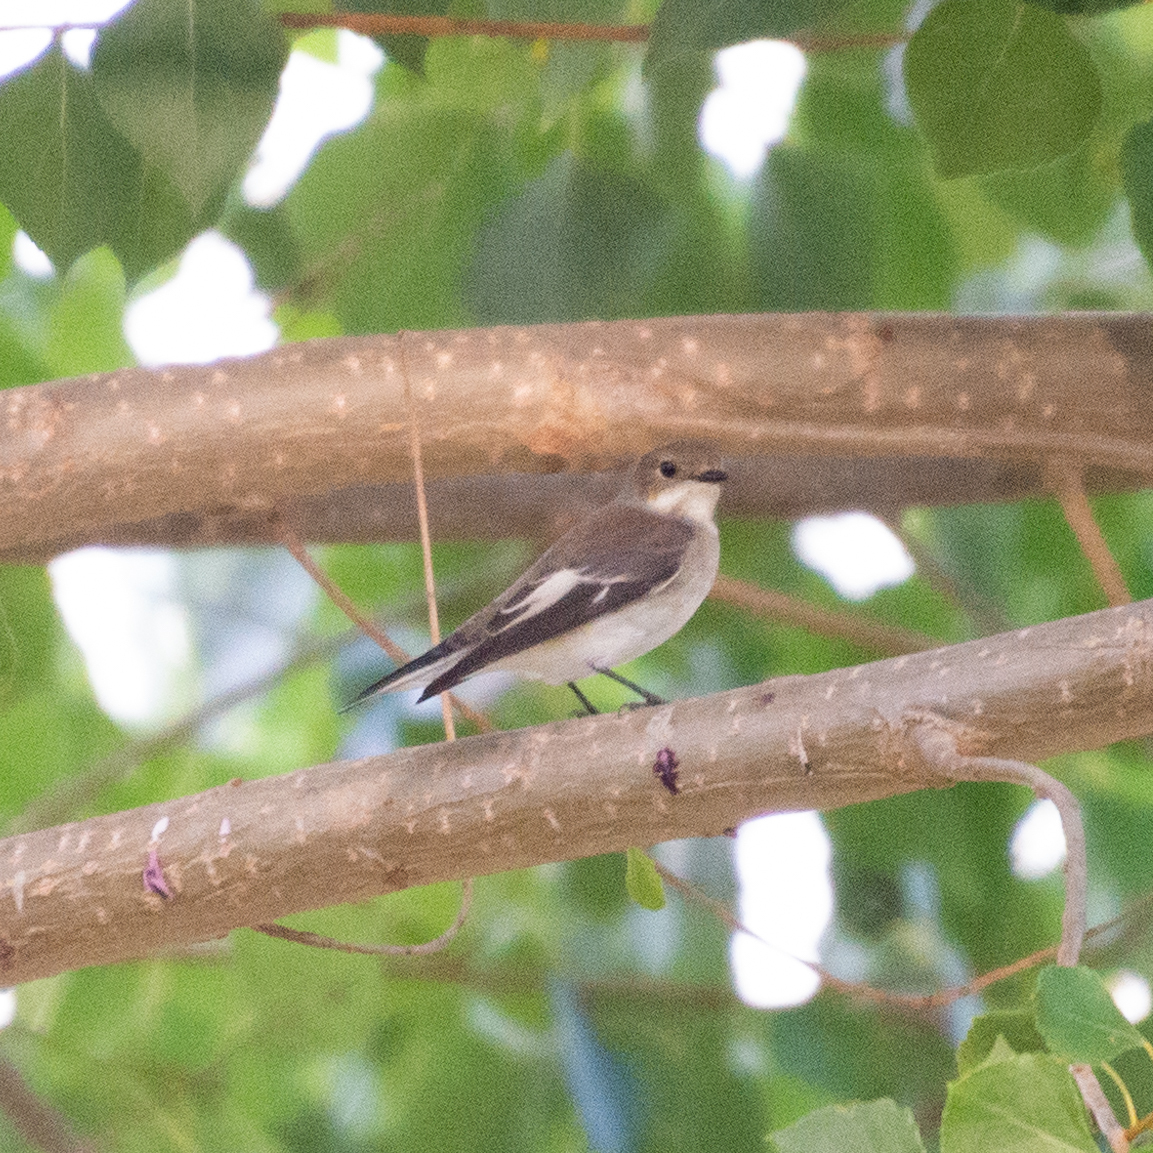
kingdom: Animalia
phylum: Chordata
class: Aves
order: Passeriformes
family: Muscicapidae
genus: Ficedula
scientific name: Ficedula hypoleuca
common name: European pied flycatcher
